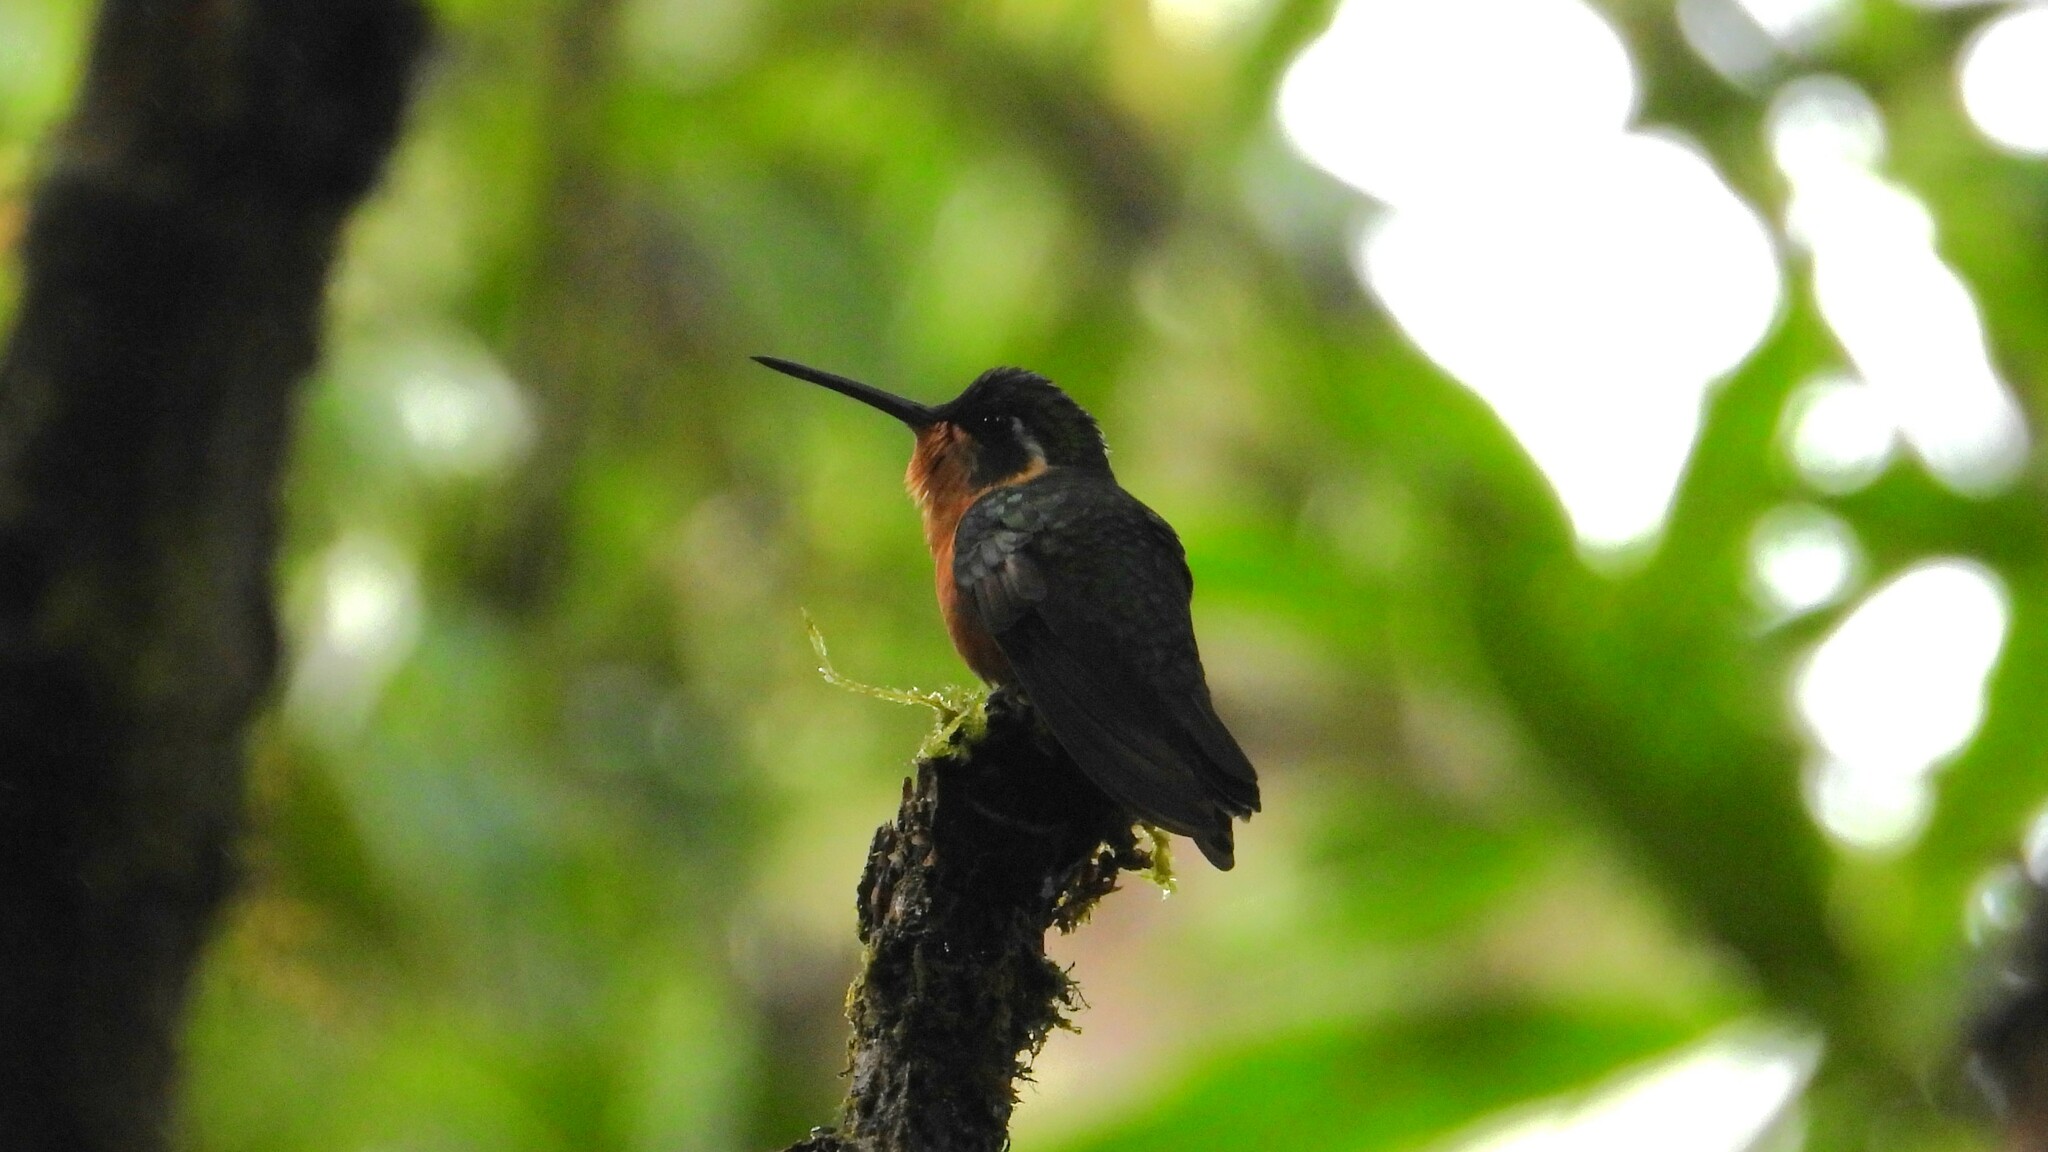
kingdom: Animalia
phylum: Chordata
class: Aves
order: Apodiformes
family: Trochilidae
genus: Lampornis
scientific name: Lampornis castaneoventris
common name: White-throated mountain-gem
